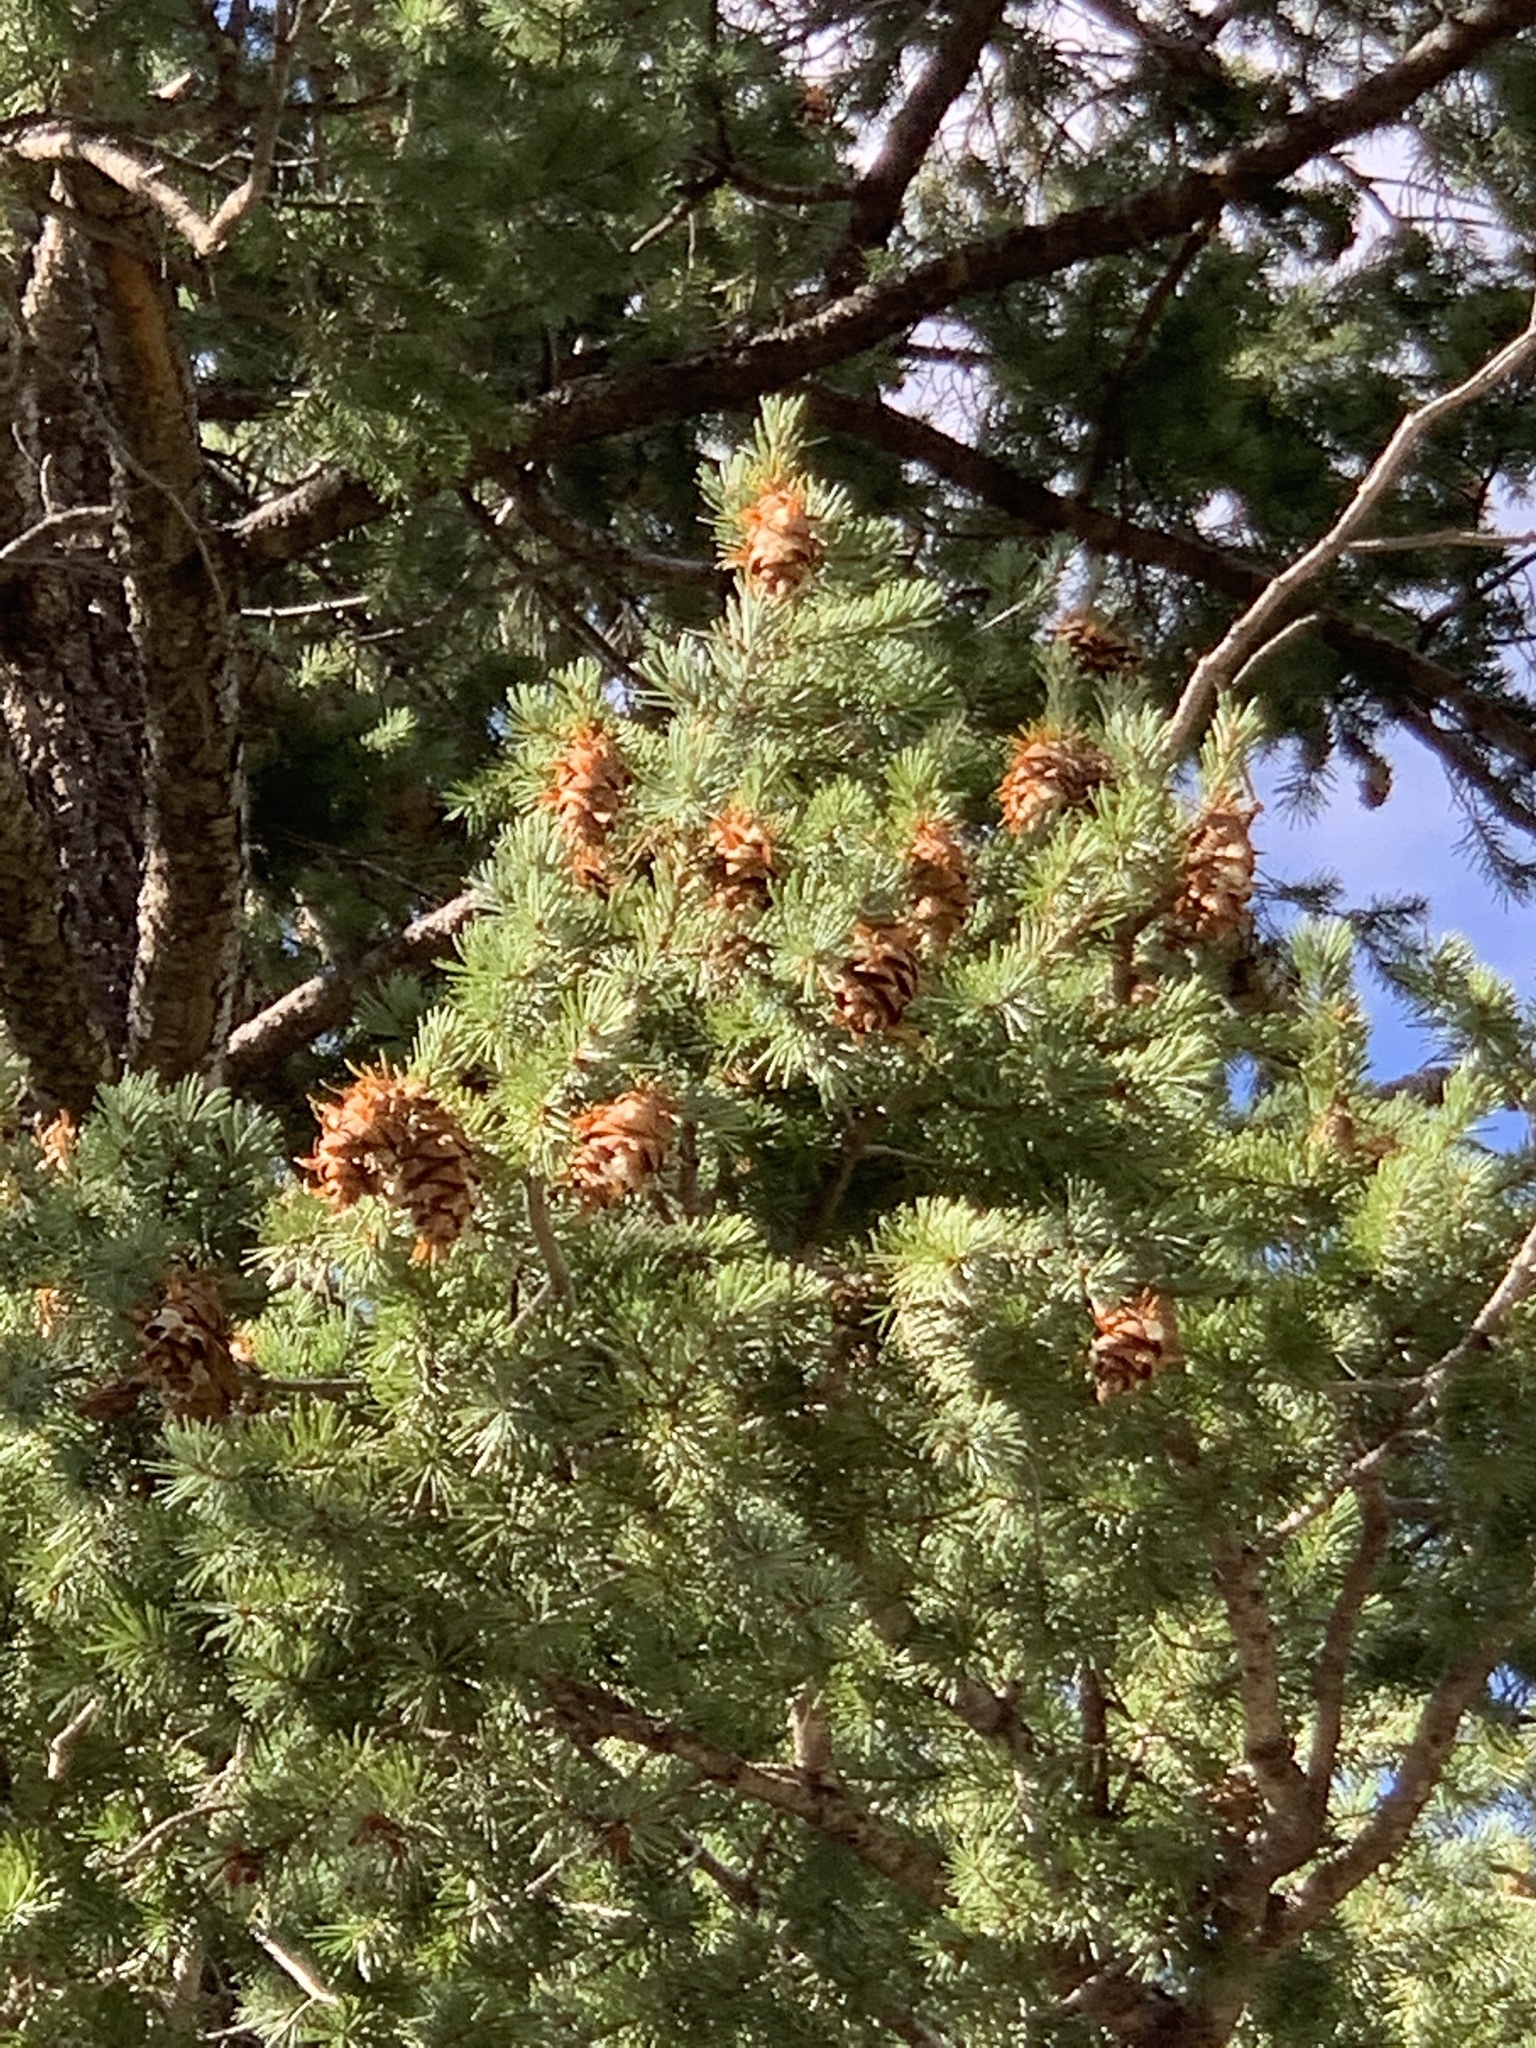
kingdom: Plantae
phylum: Tracheophyta
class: Pinopsida
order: Pinales
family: Pinaceae
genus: Pseudotsuga
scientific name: Pseudotsuga menziesii
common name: Douglas fir
